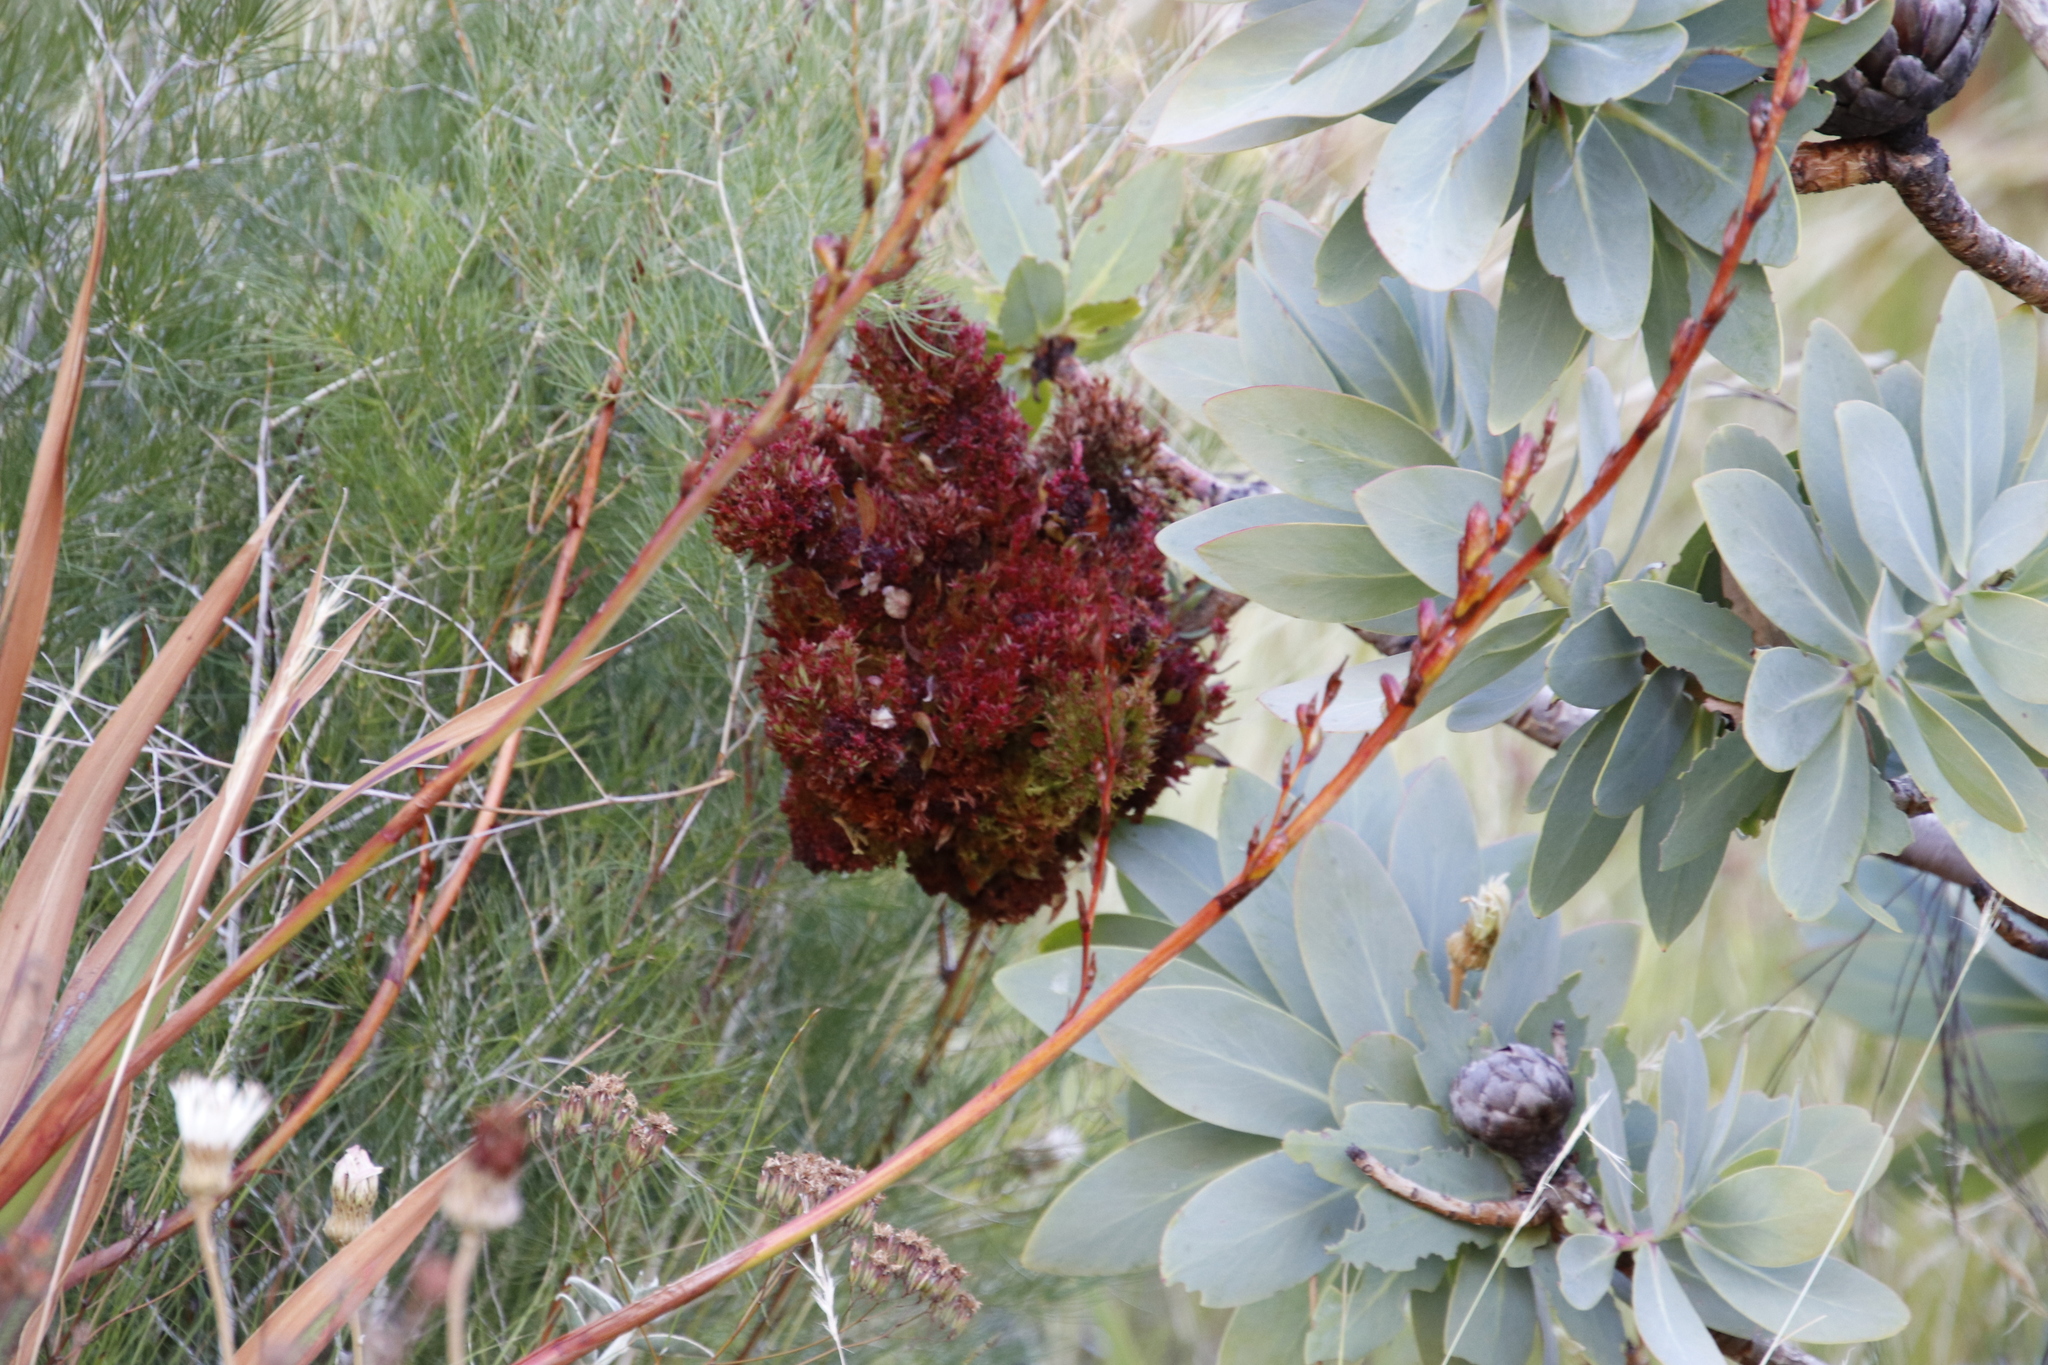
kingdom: Plantae
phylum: Tracheophyta
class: Magnoliopsida
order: Proteales
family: Proteaceae
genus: Protea
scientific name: Protea nitida
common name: Tree protea
